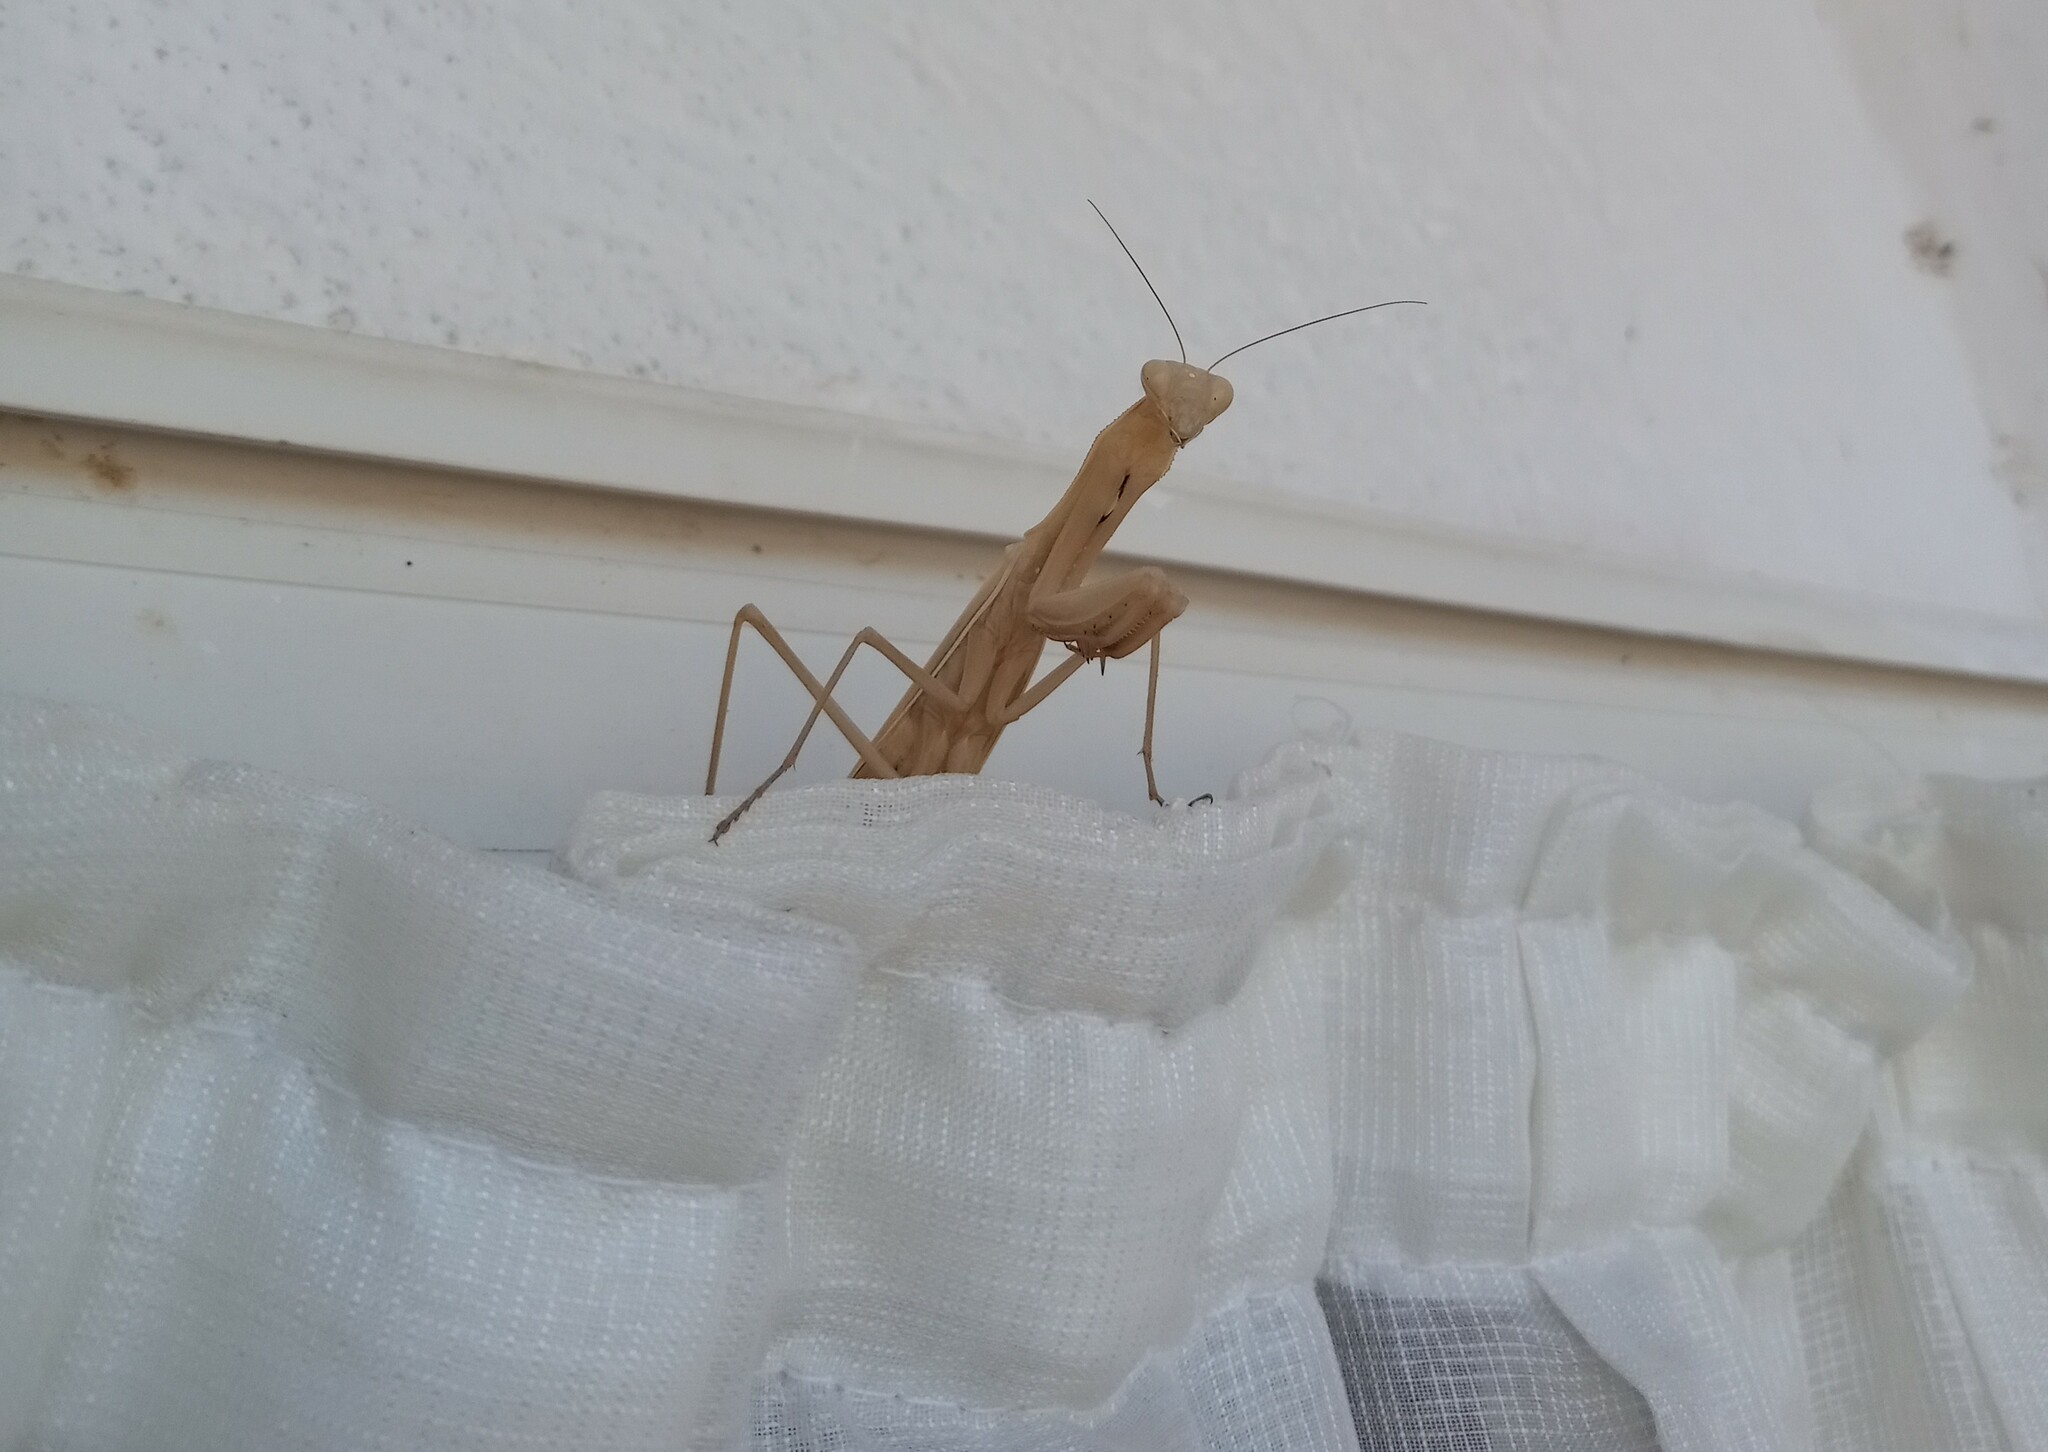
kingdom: Animalia
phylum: Arthropoda
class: Insecta
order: Mantodea
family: Mantidae
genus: Mantis
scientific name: Mantis religiosa
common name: Praying mantis
